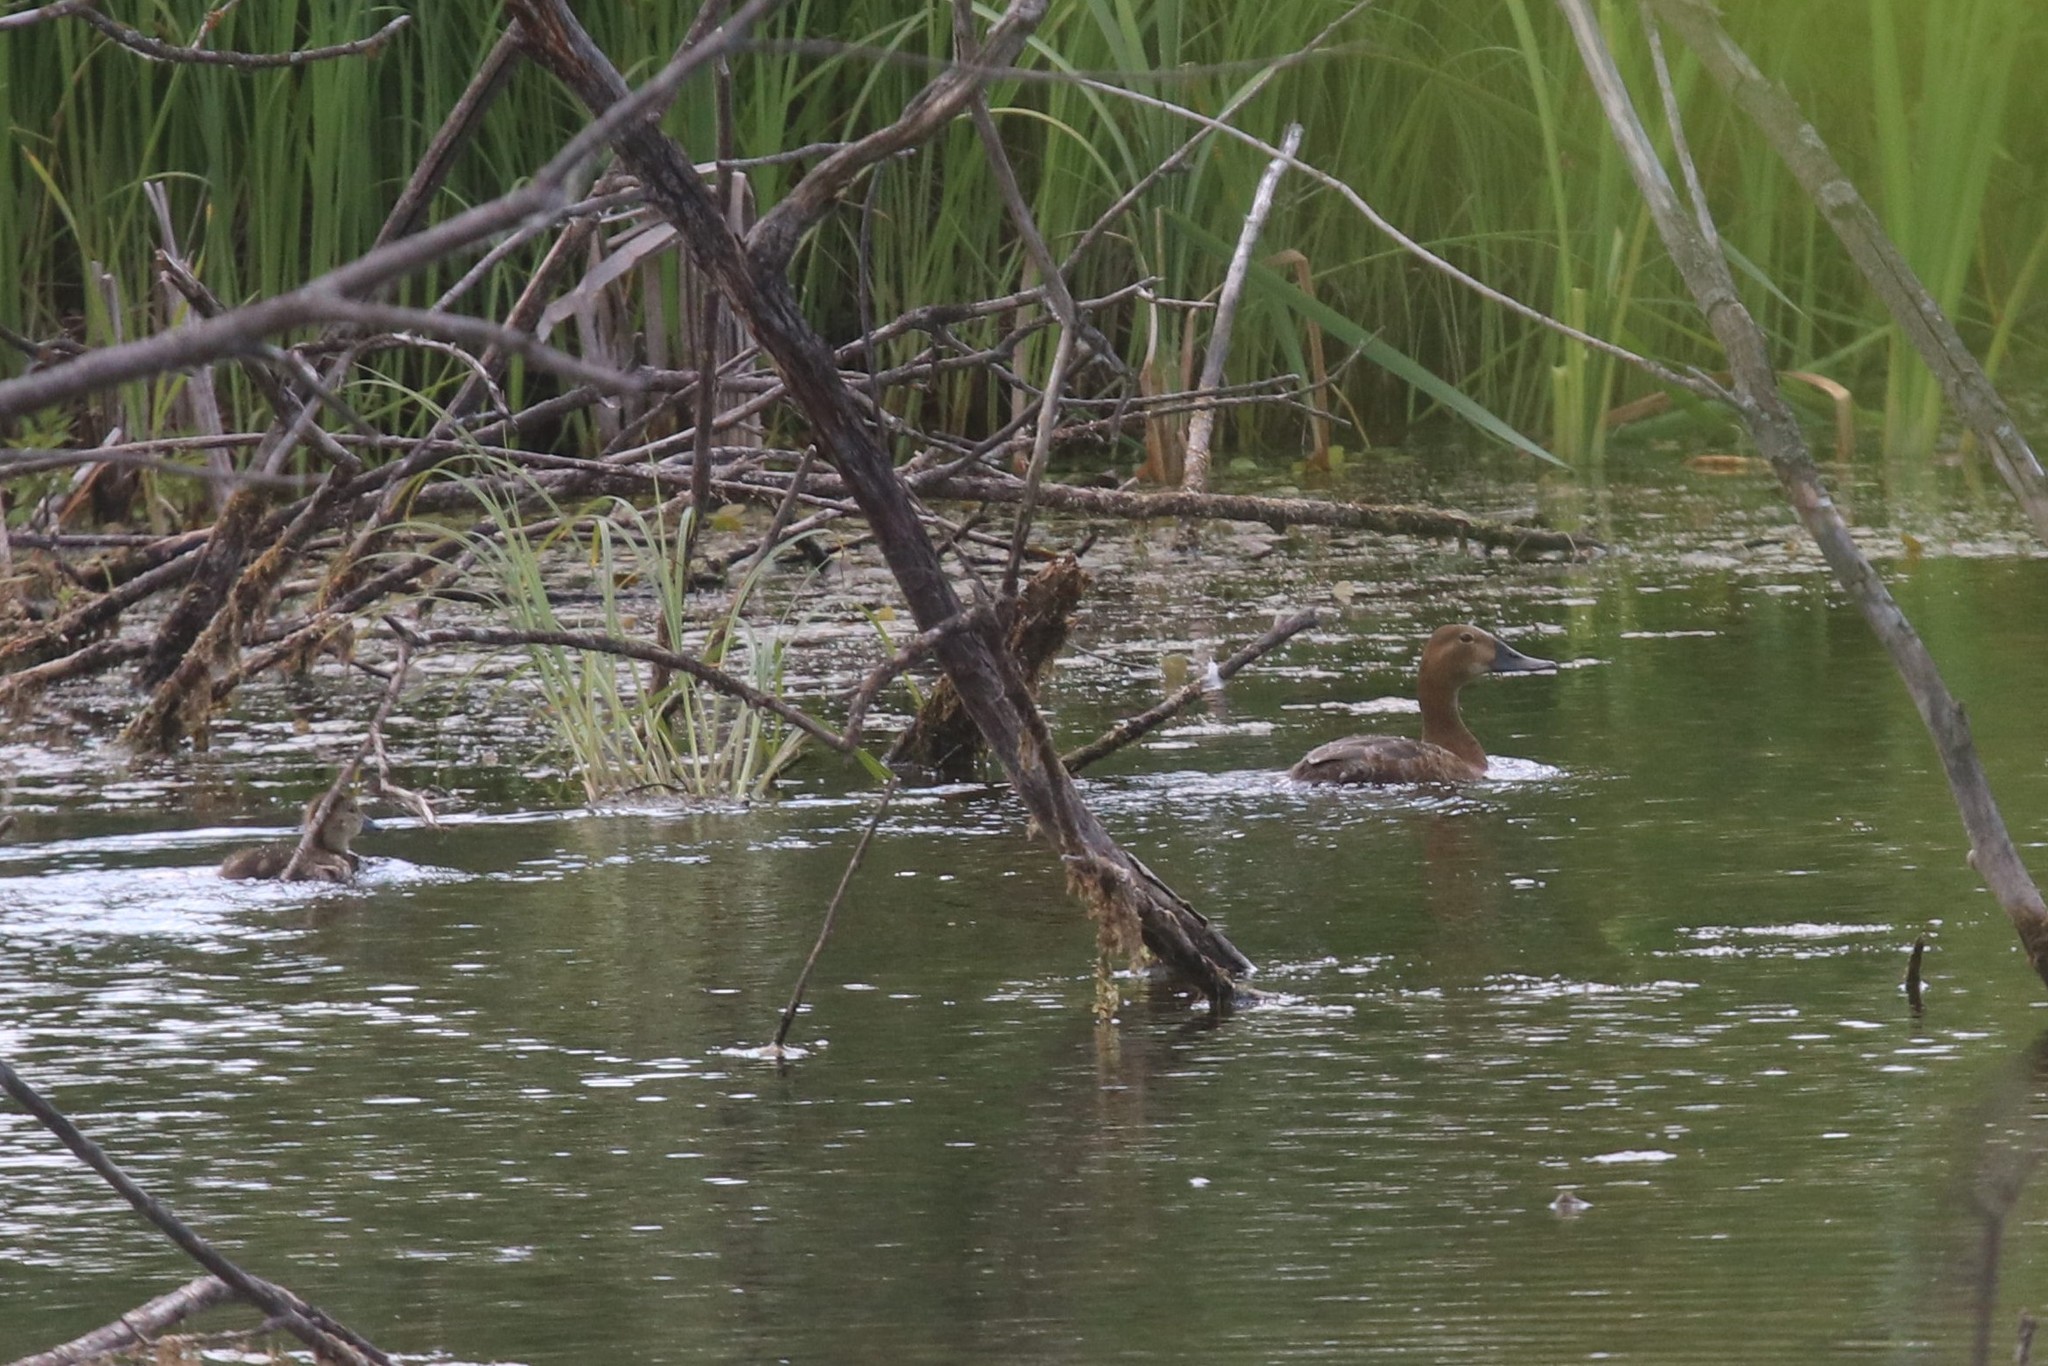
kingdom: Animalia
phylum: Chordata
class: Aves
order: Anseriformes
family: Anatidae
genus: Aythya
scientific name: Aythya ferina
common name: Common pochard
